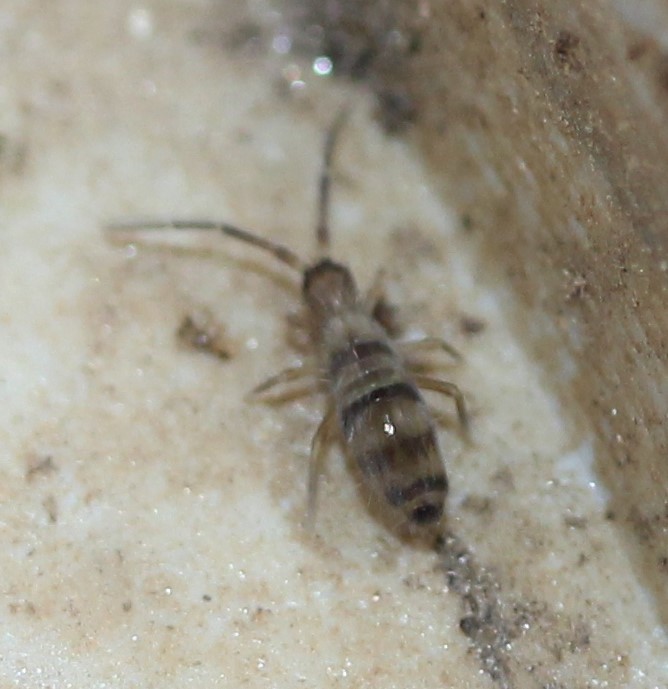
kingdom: Animalia
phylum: Arthropoda
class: Collembola
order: Entomobryomorpha
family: Entomobryidae
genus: Homidia
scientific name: Homidia sauteri
